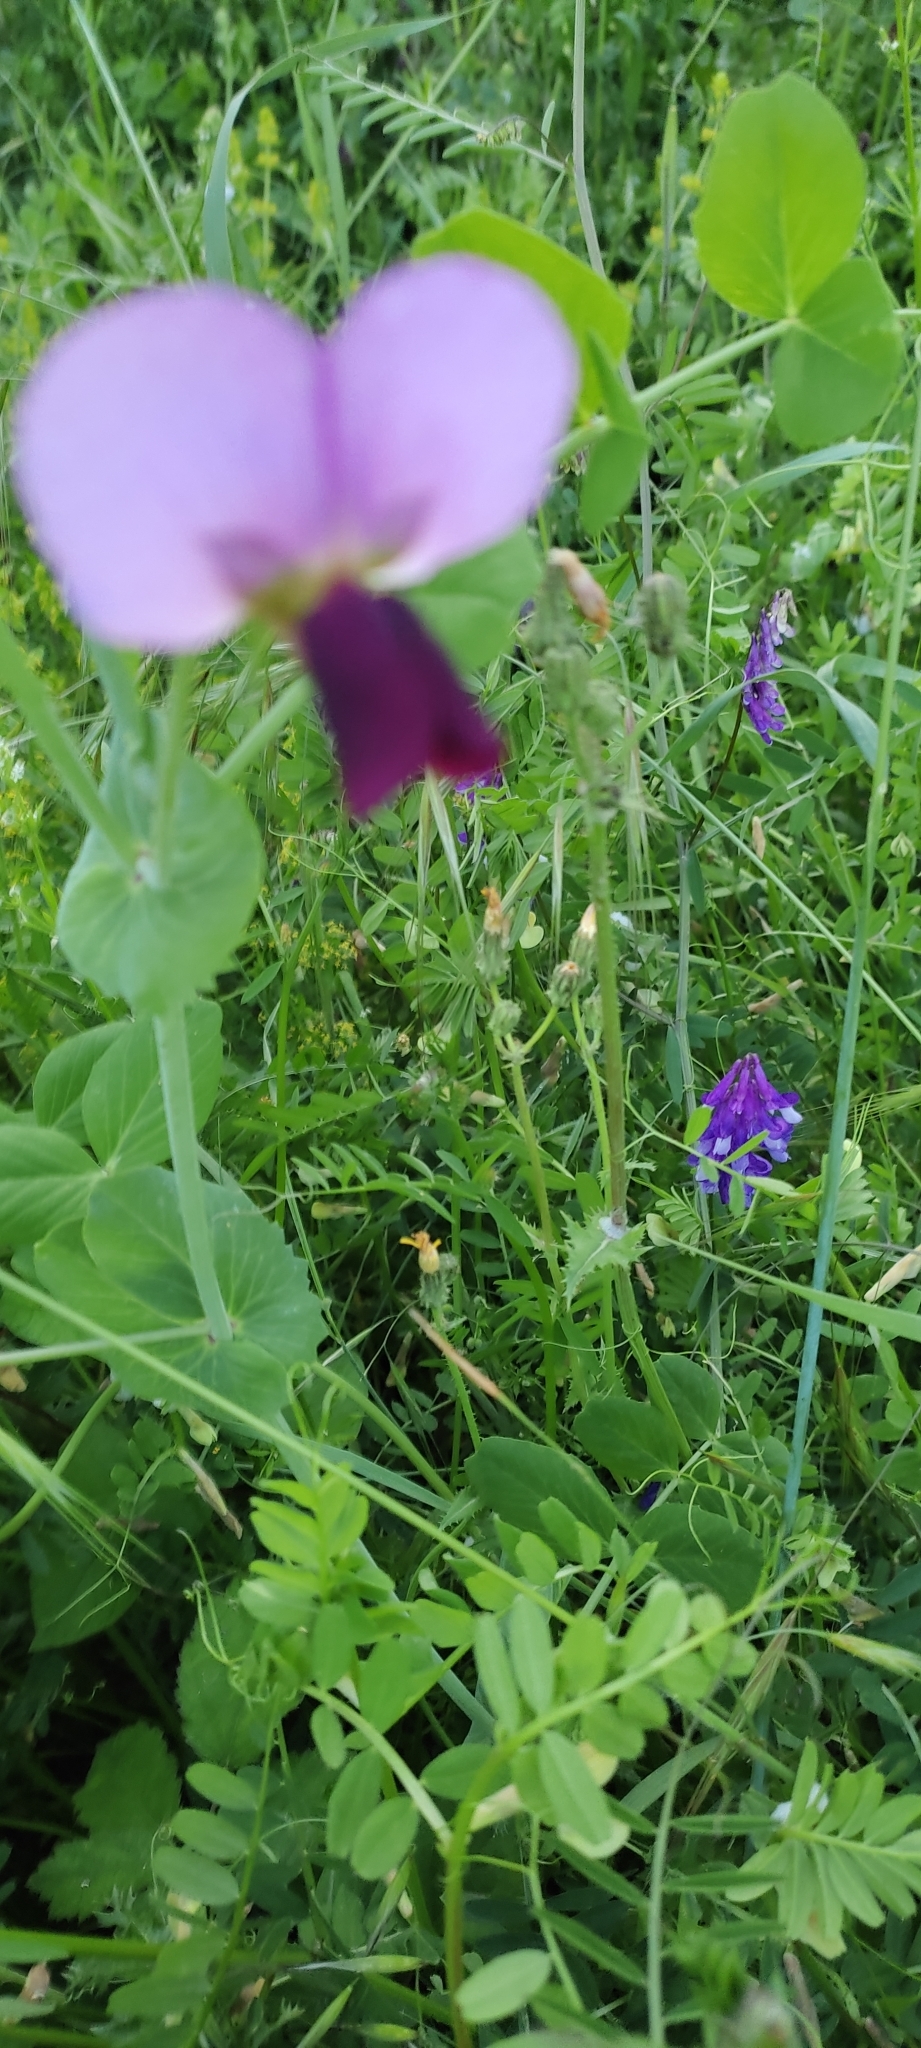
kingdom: Plantae
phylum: Tracheophyta
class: Magnoliopsida
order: Fabales
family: Fabaceae
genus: Lathyrus
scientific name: Lathyrus oleraceus
